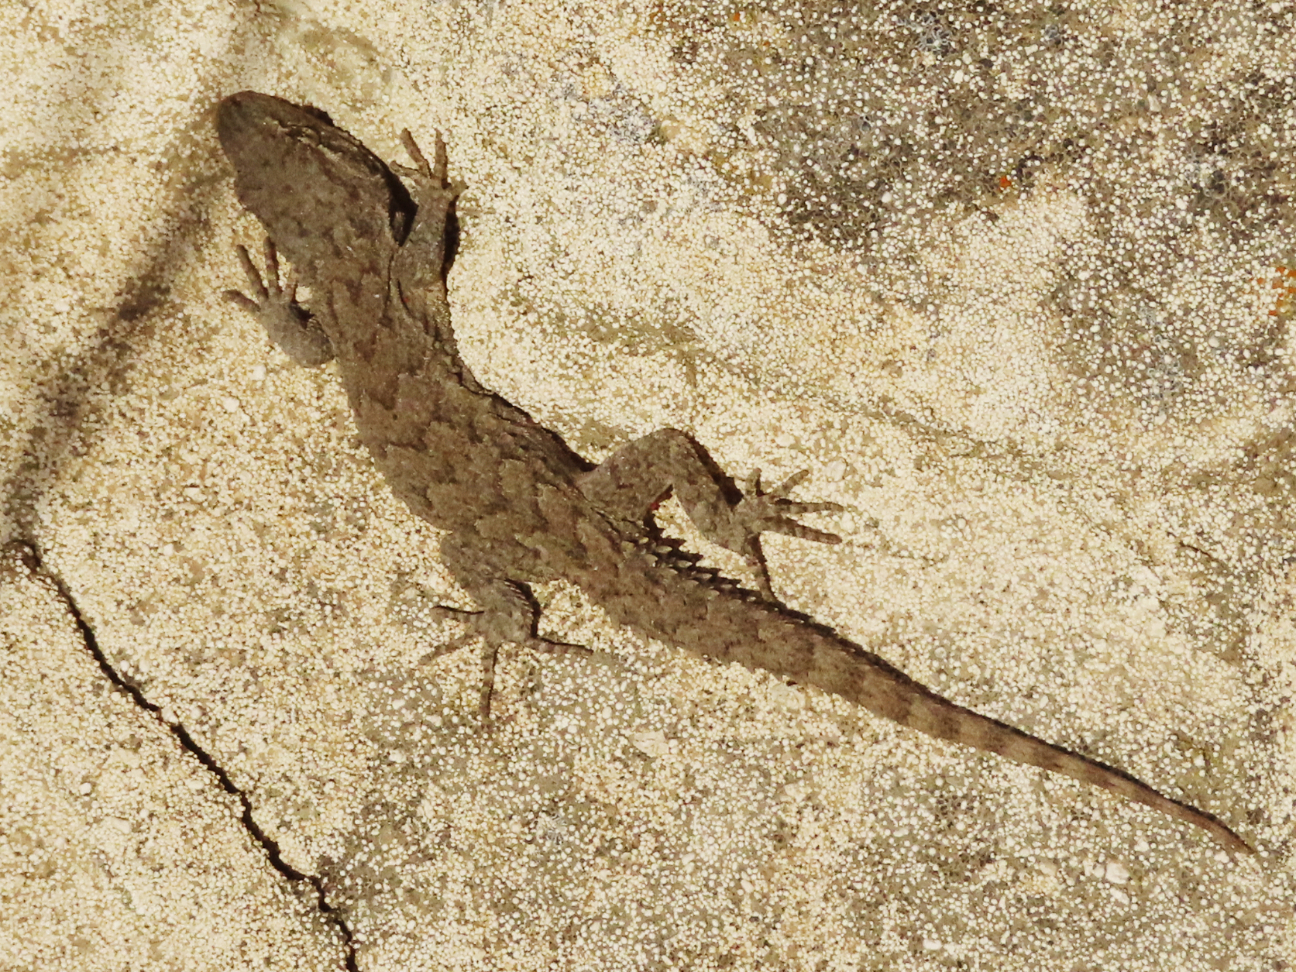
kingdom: Animalia
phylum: Chordata
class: Squamata
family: Gekkonidae
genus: Mediodactylus
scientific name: Mediodactylus russowii
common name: Grey thin-toed gecko
